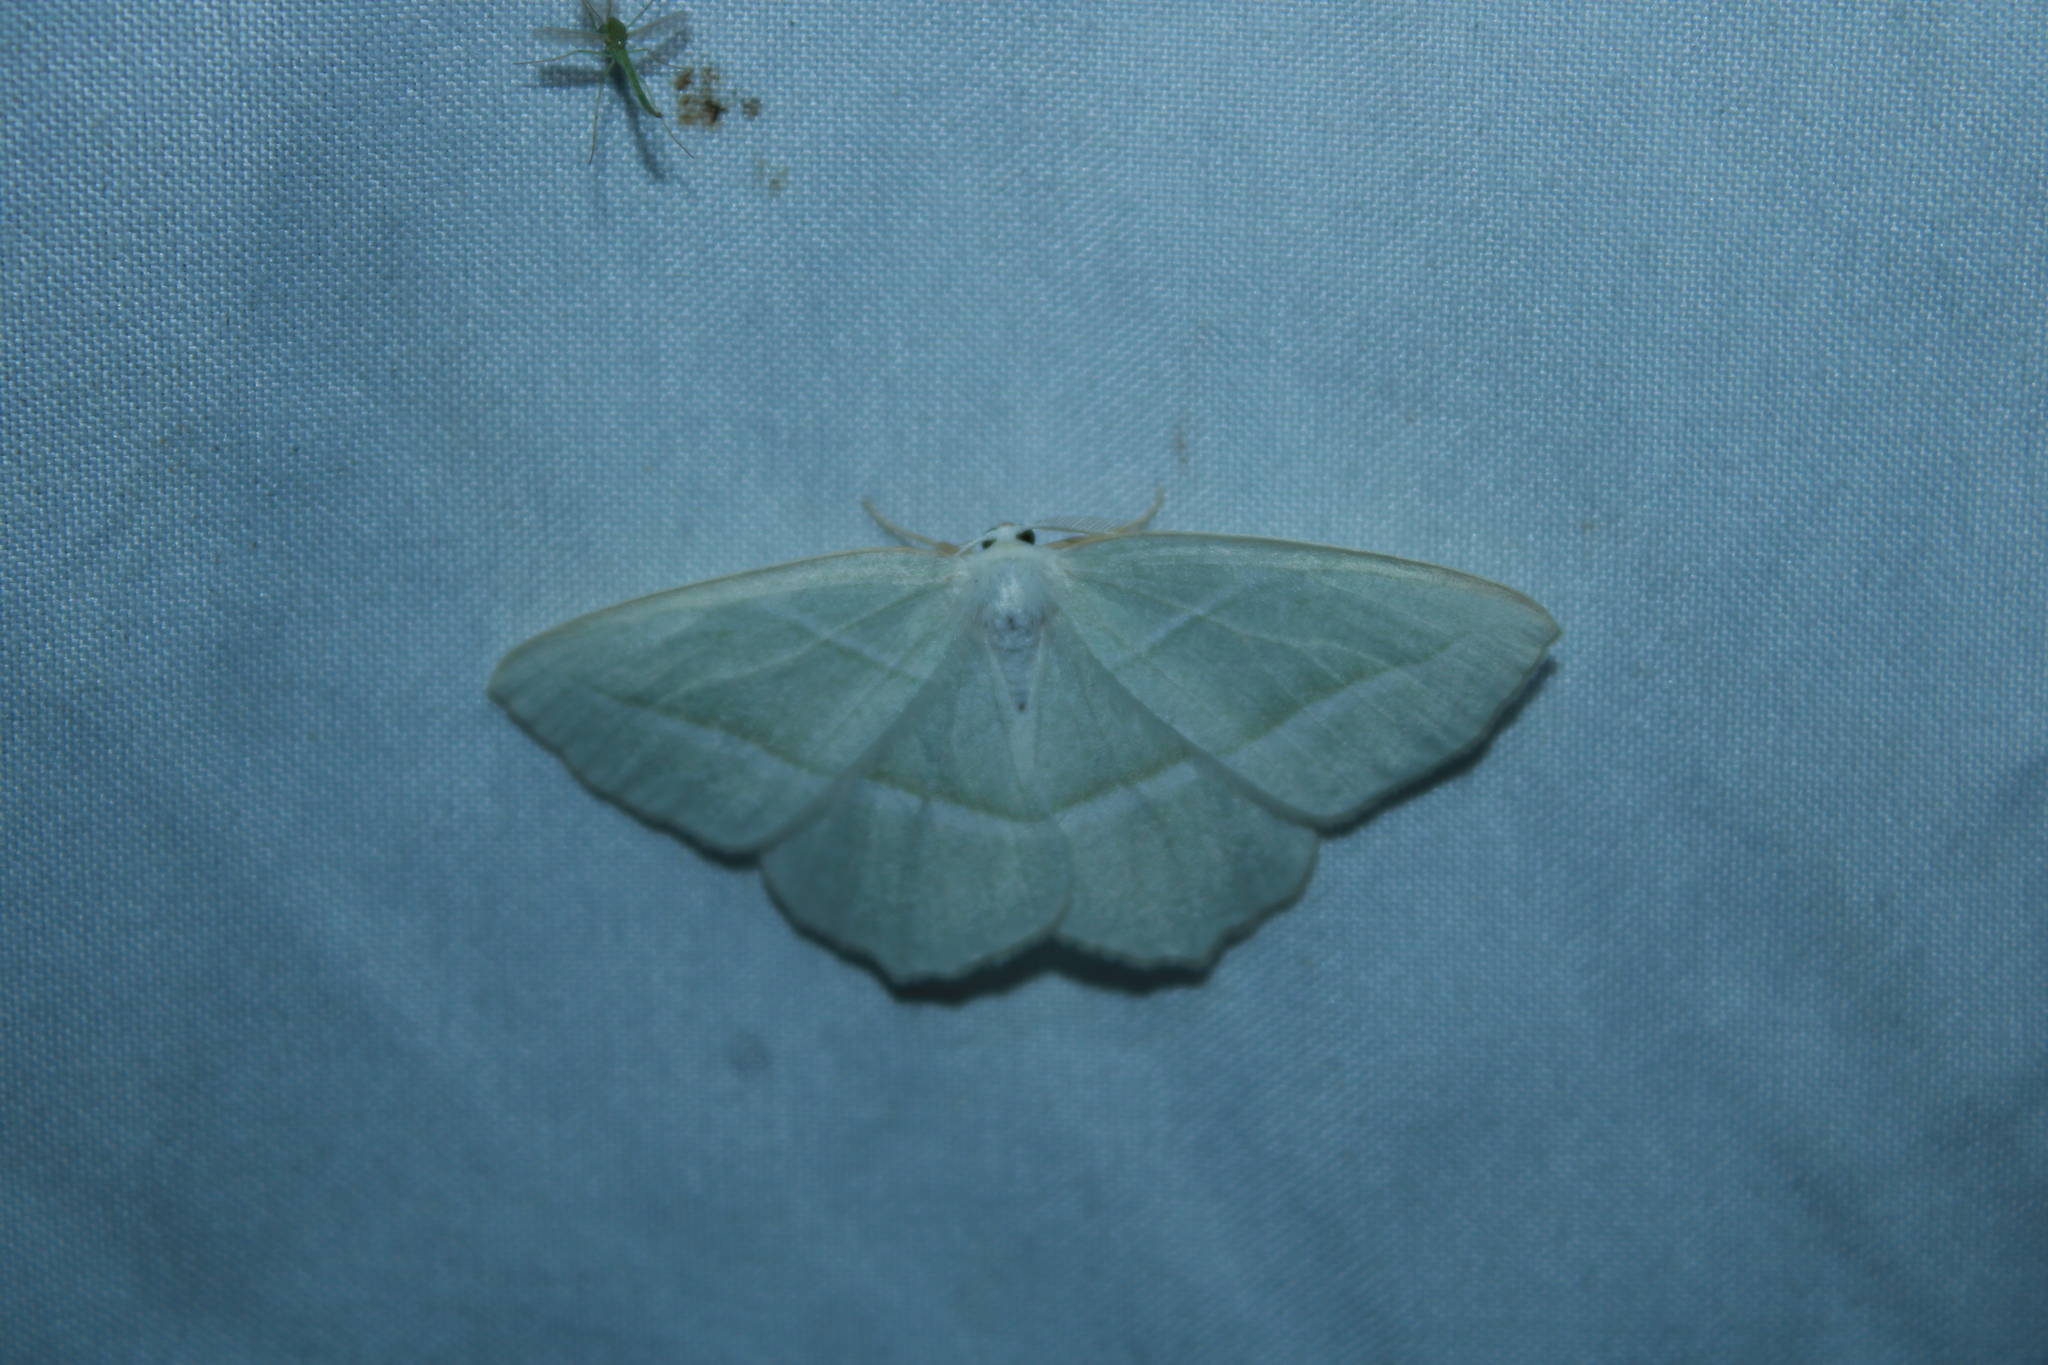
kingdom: Animalia
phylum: Arthropoda
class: Insecta
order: Lepidoptera
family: Geometridae
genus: Campaea
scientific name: Campaea perlata
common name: Fringed looper
